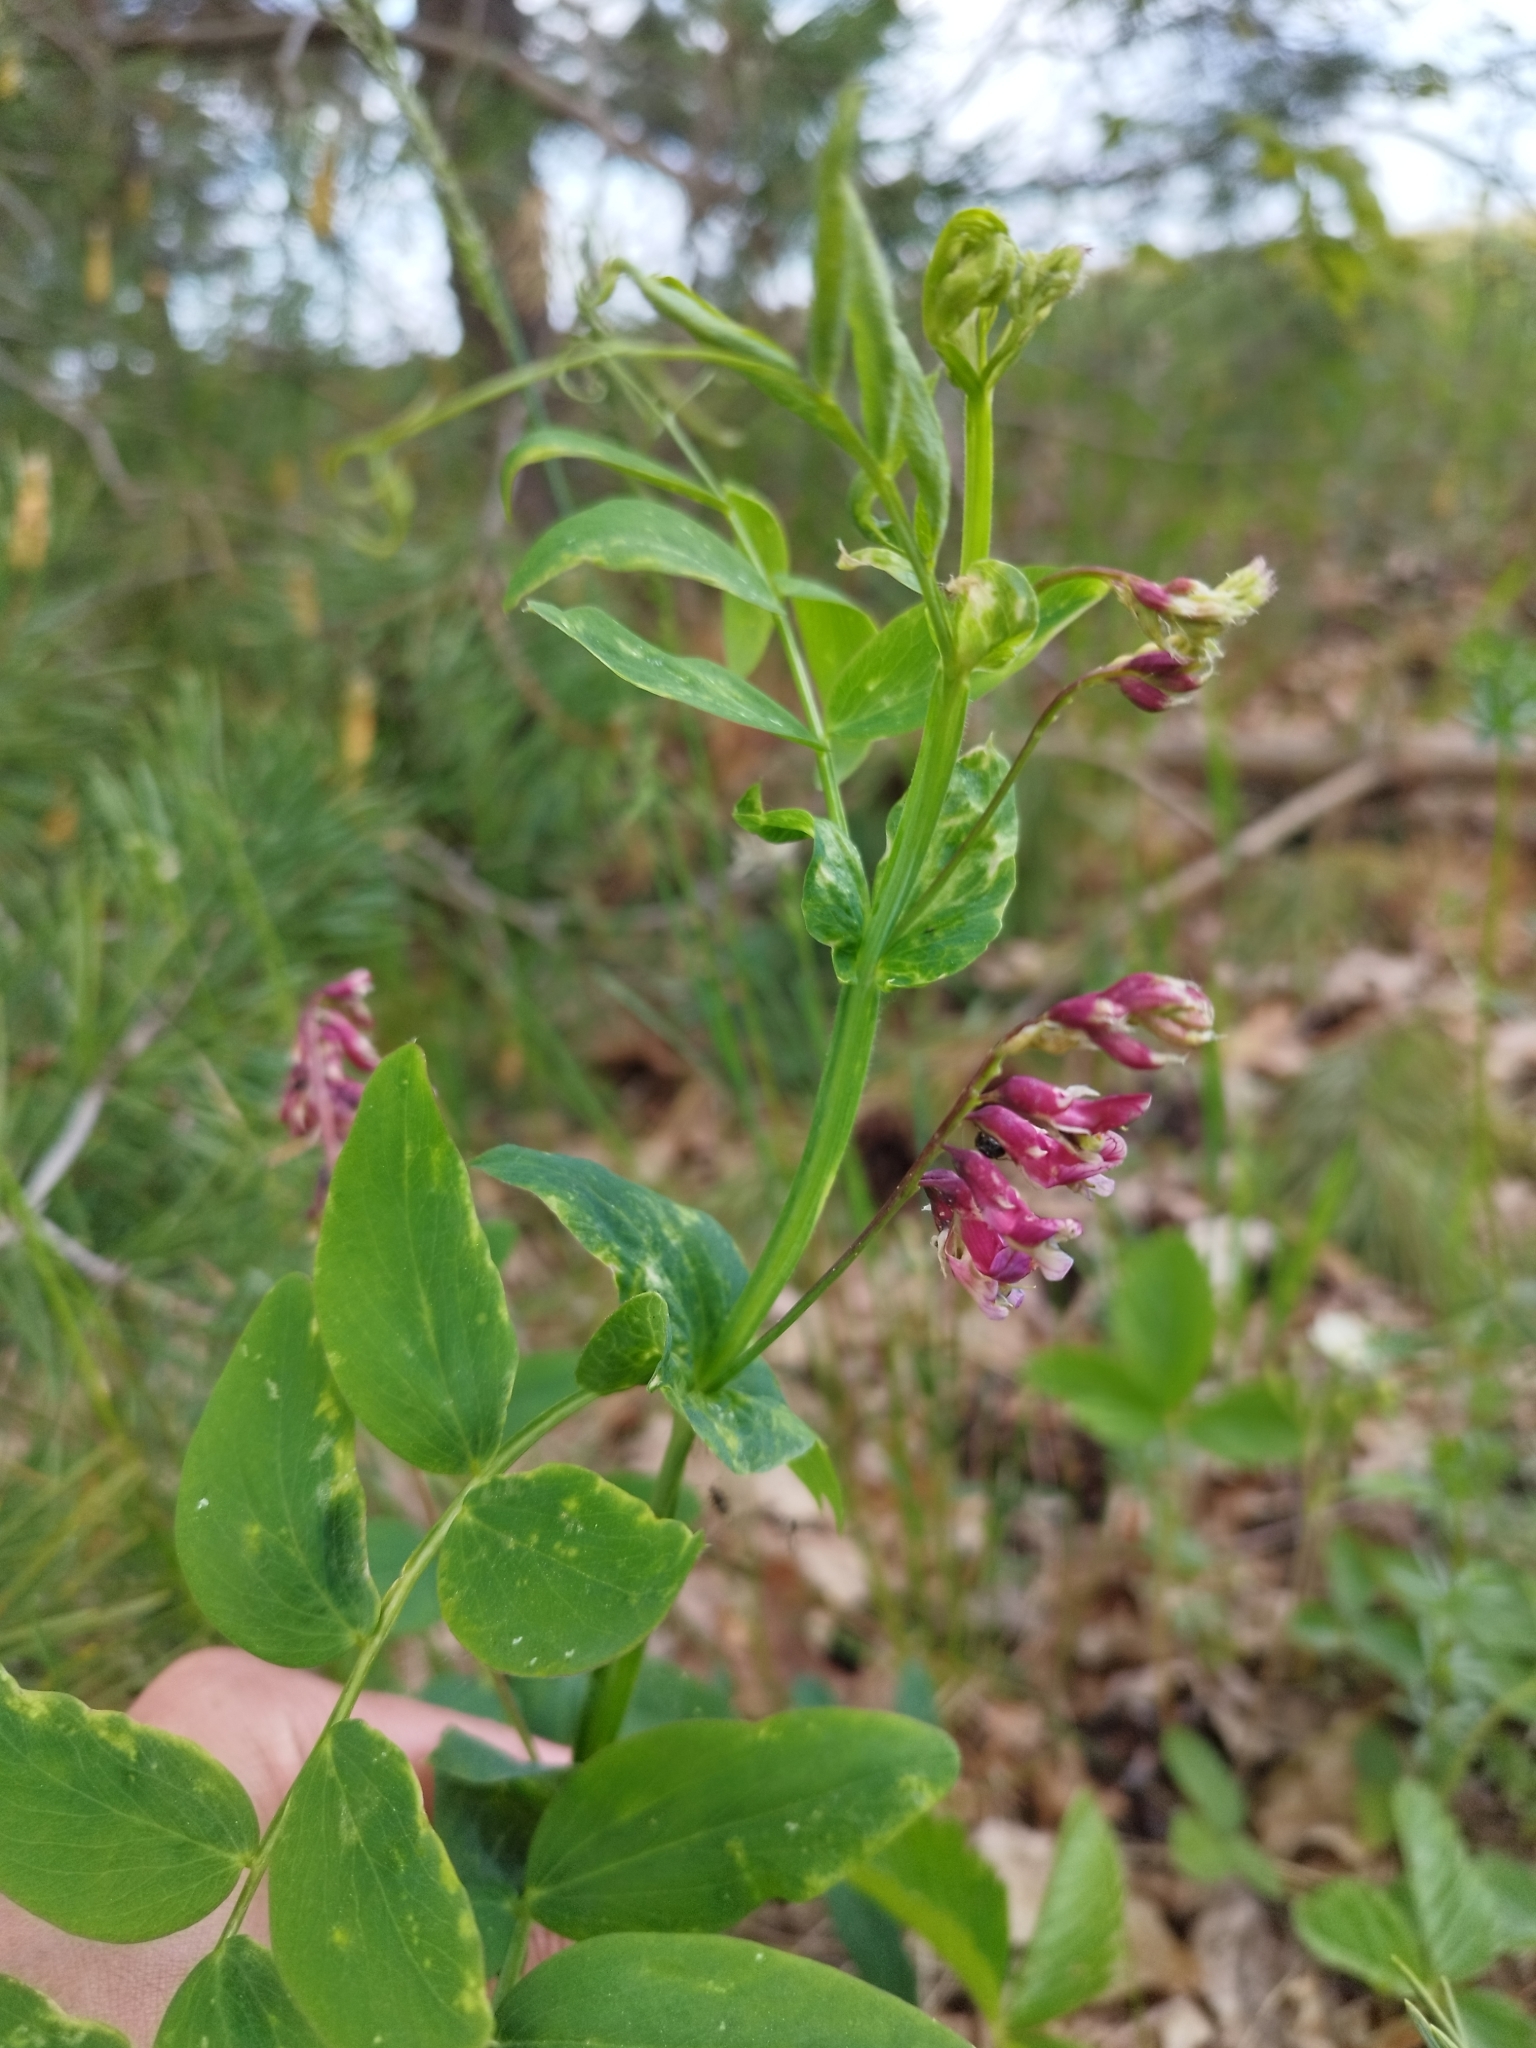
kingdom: Plantae
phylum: Tracheophyta
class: Magnoliopsida
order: Fabales
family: Fabaceae
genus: Lathyrus
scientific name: Lathyrus pisiformis
